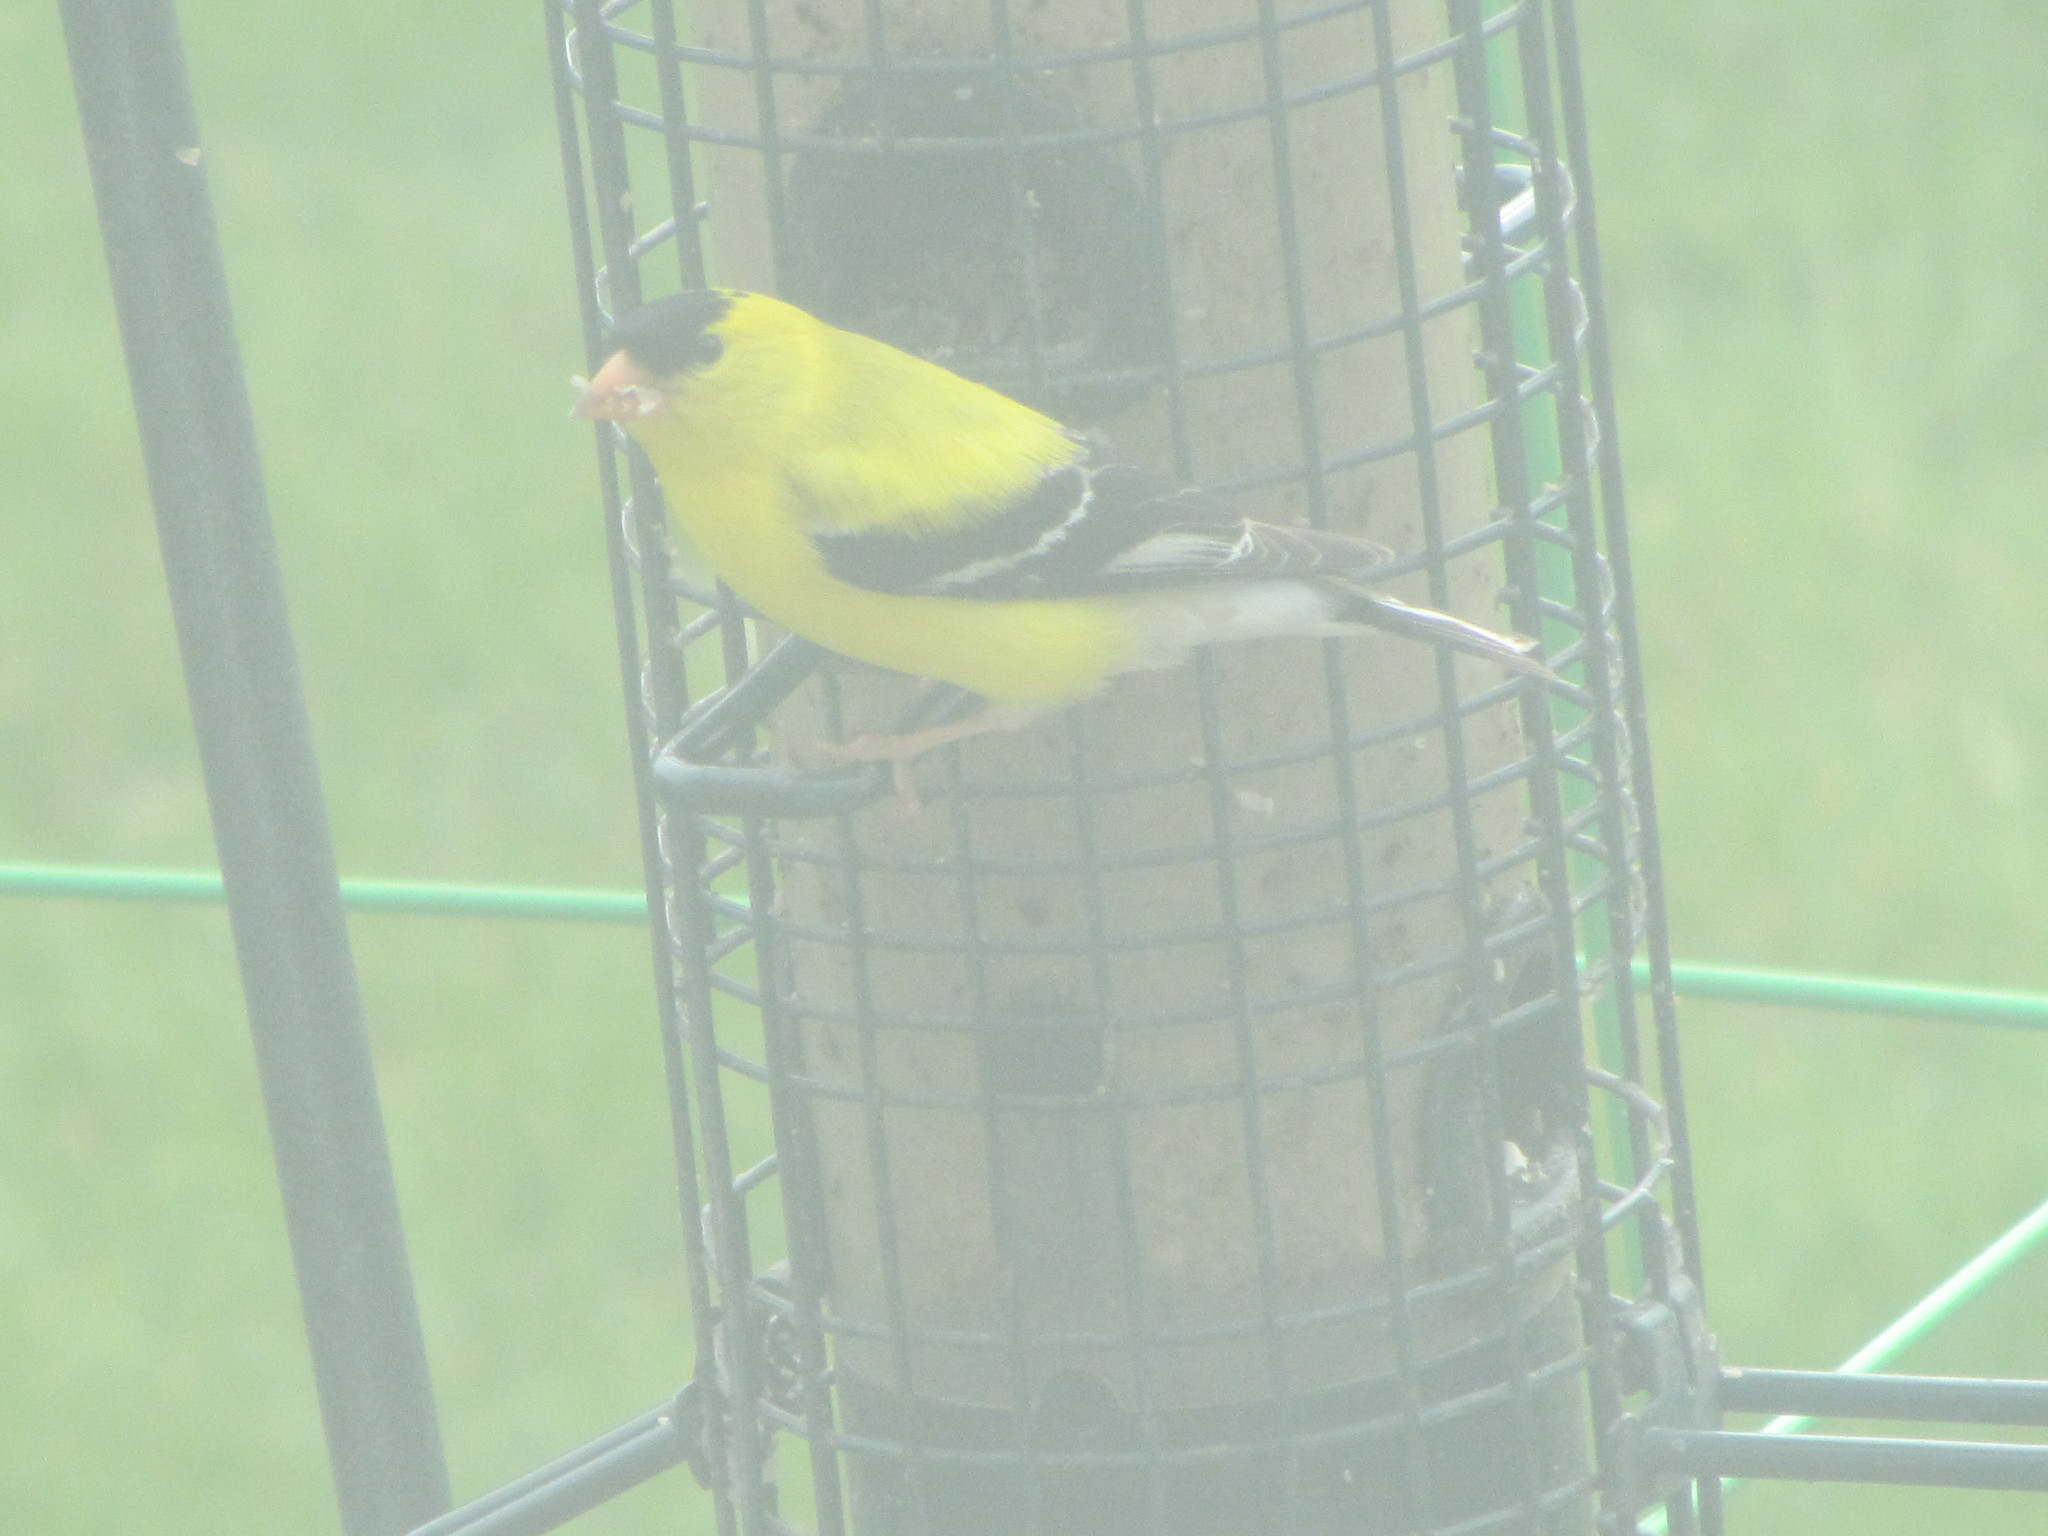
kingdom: Animalia
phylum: Chordata
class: Aves
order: Passeriformes
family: Fringillidae
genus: Spinus
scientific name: Spinus tristis
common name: American goldfinch
